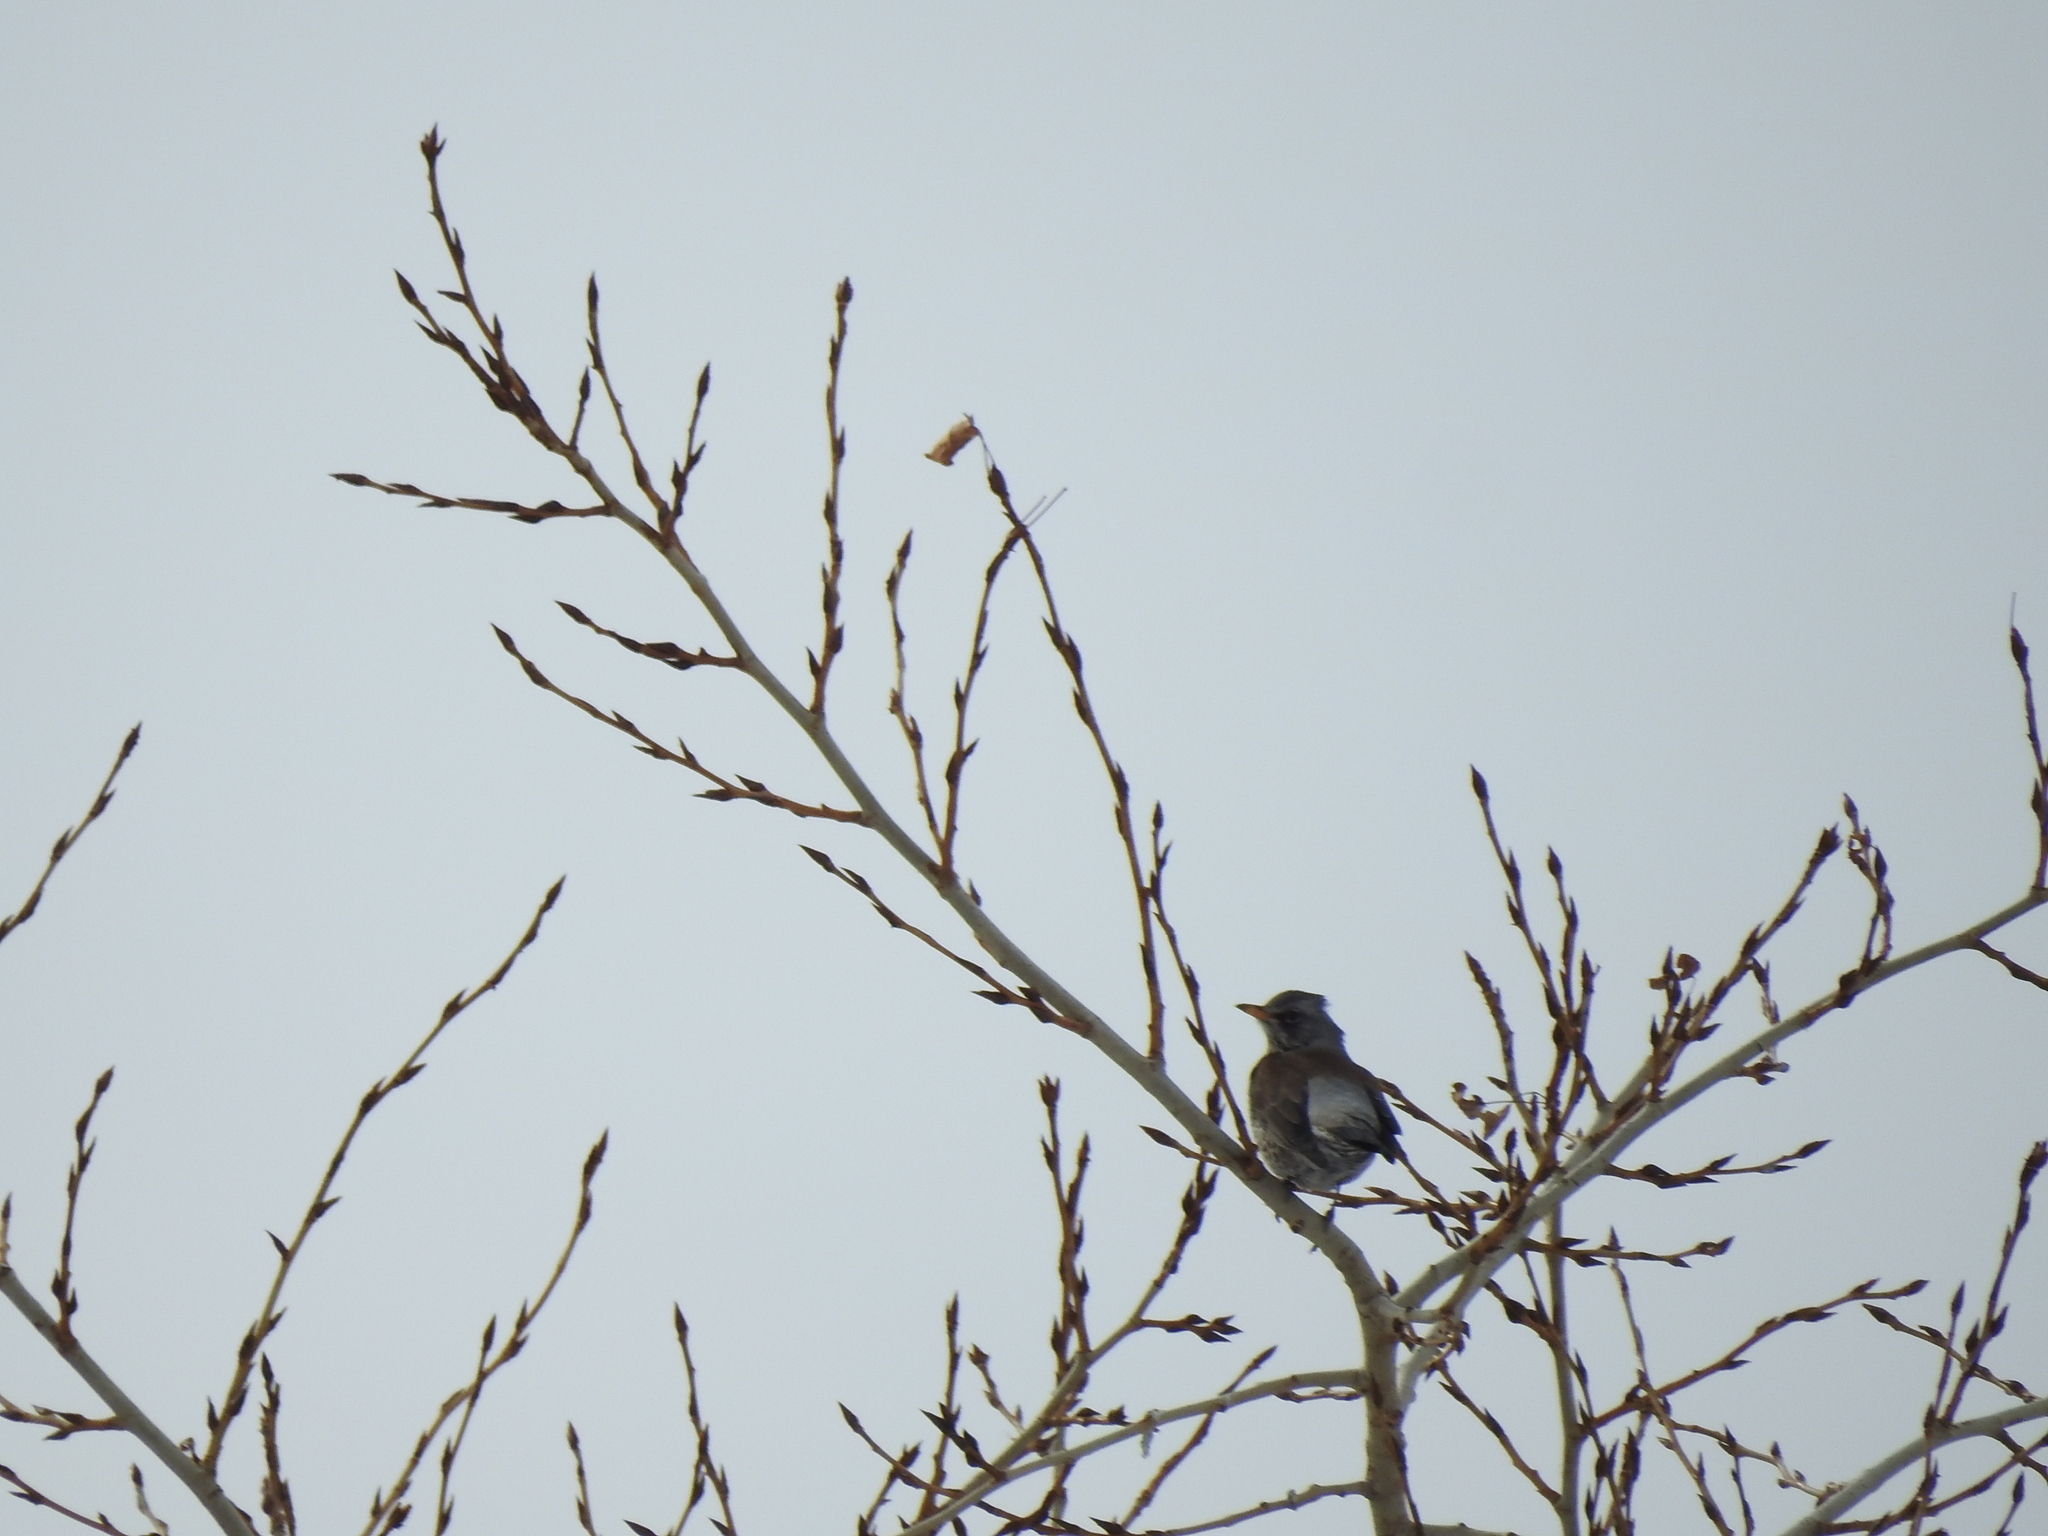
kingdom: Animalia
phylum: Chordata
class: Aves
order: Passeriformes
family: Turdidae
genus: Turdus
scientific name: Turdus pilaris
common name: Fieldfare
